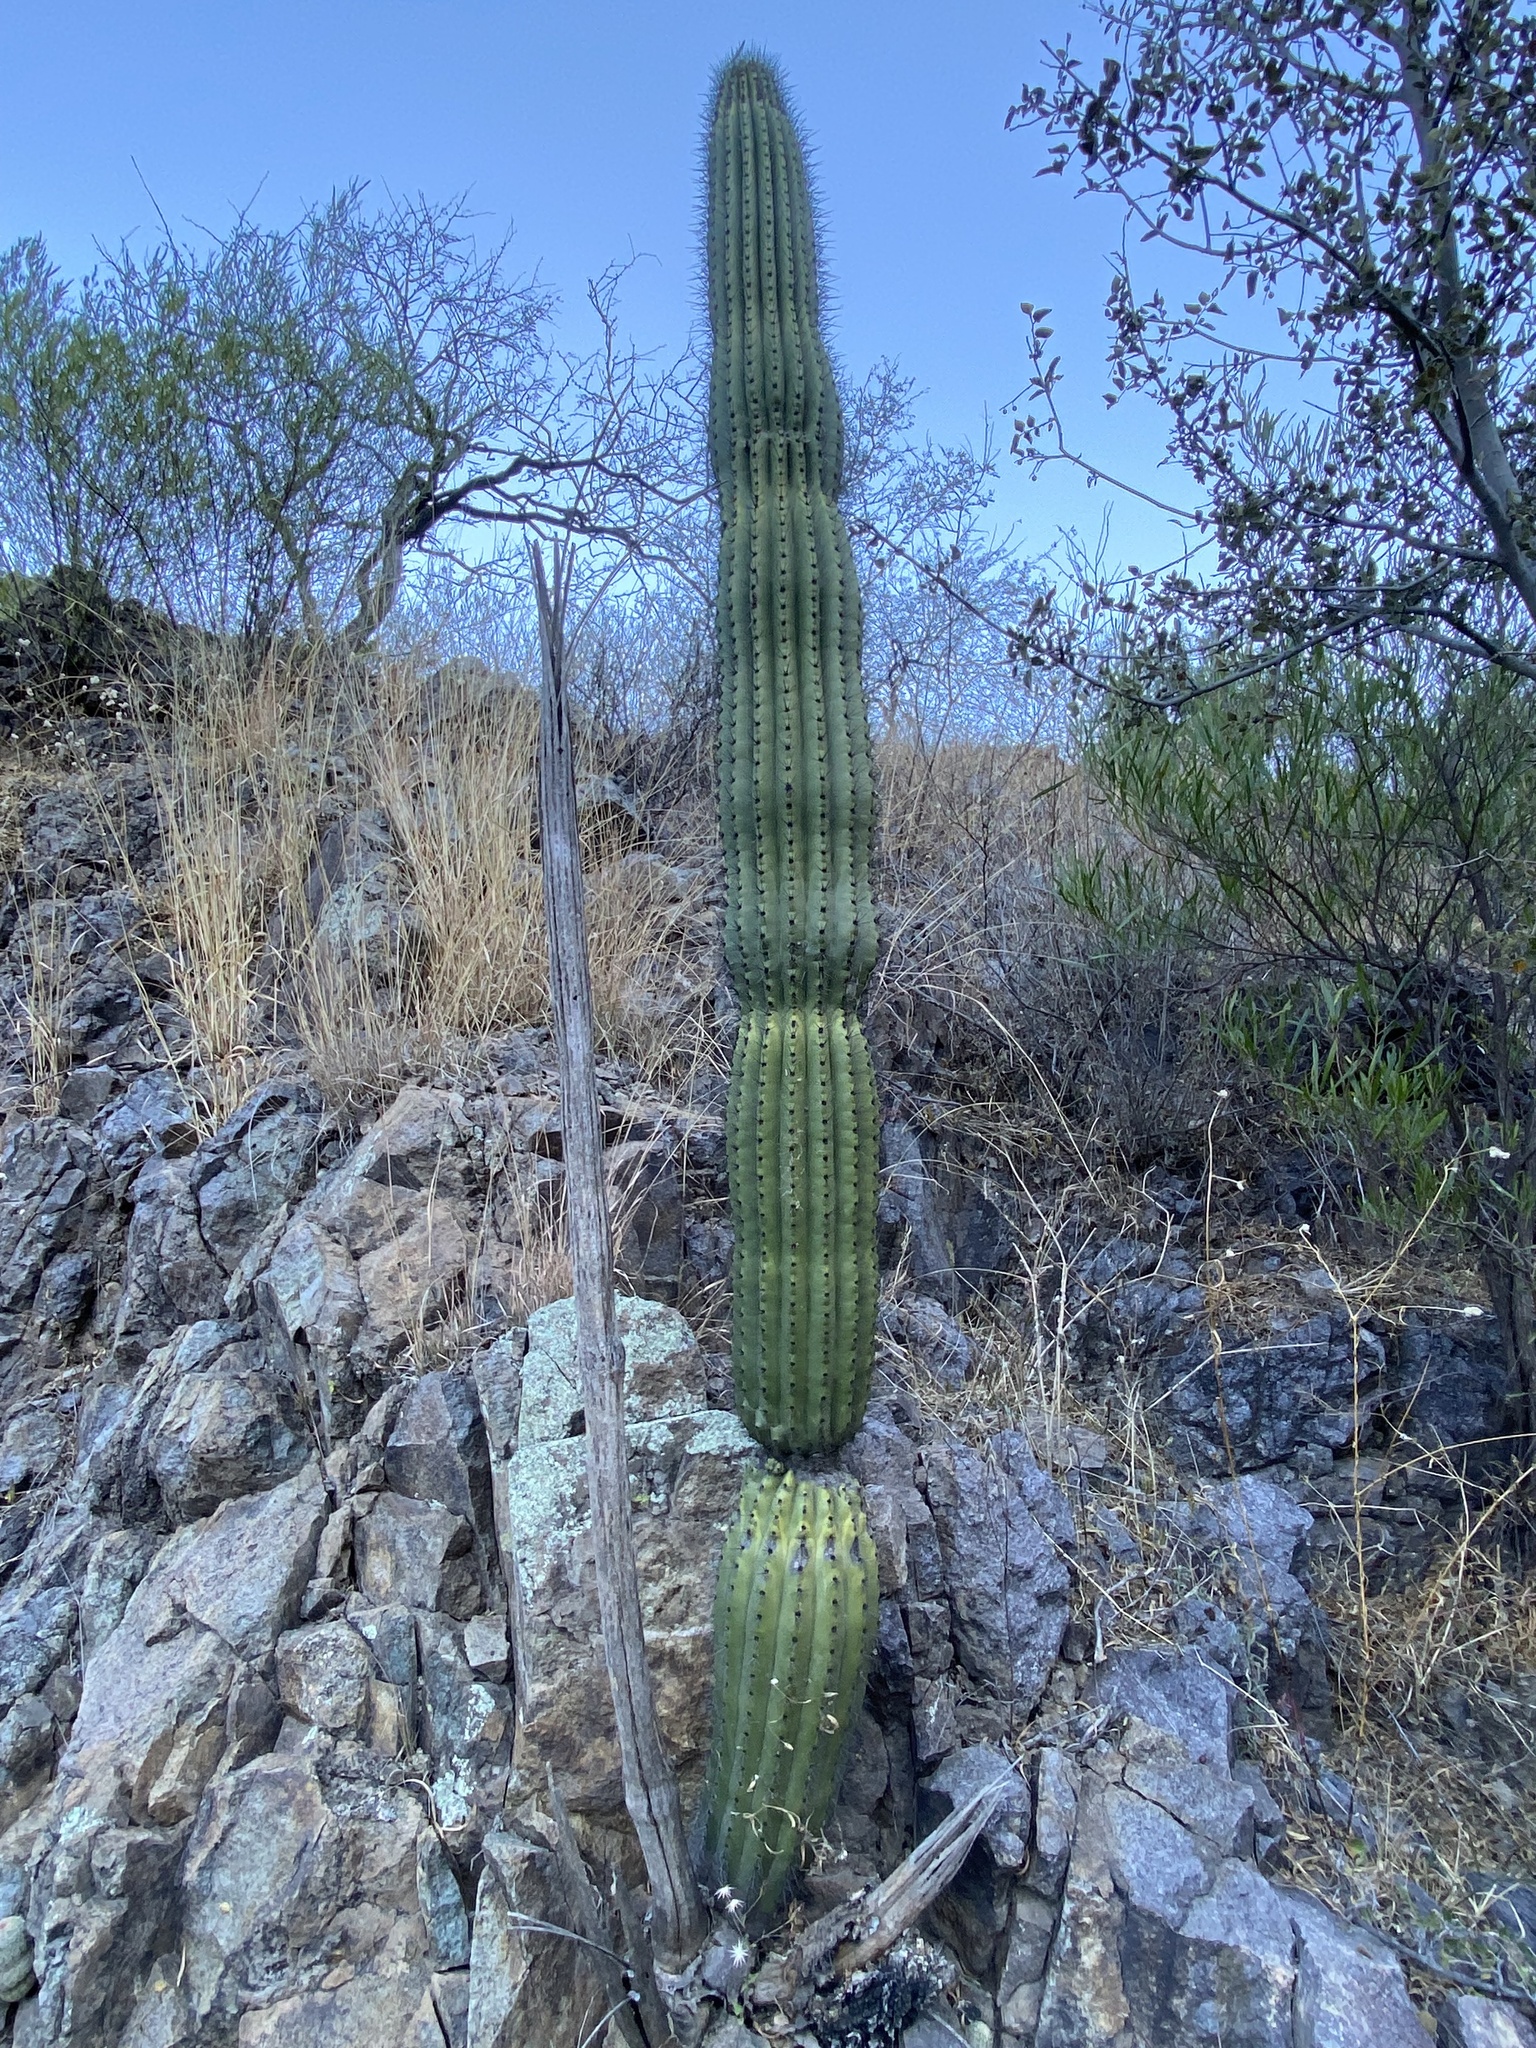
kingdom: Plantae
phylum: Tracheophyta
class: Magnoliopsida
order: Caryophyllales
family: Cactaceae
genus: Stenocereus
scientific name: Stenocereus thurberi
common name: Organ pipe cactus
